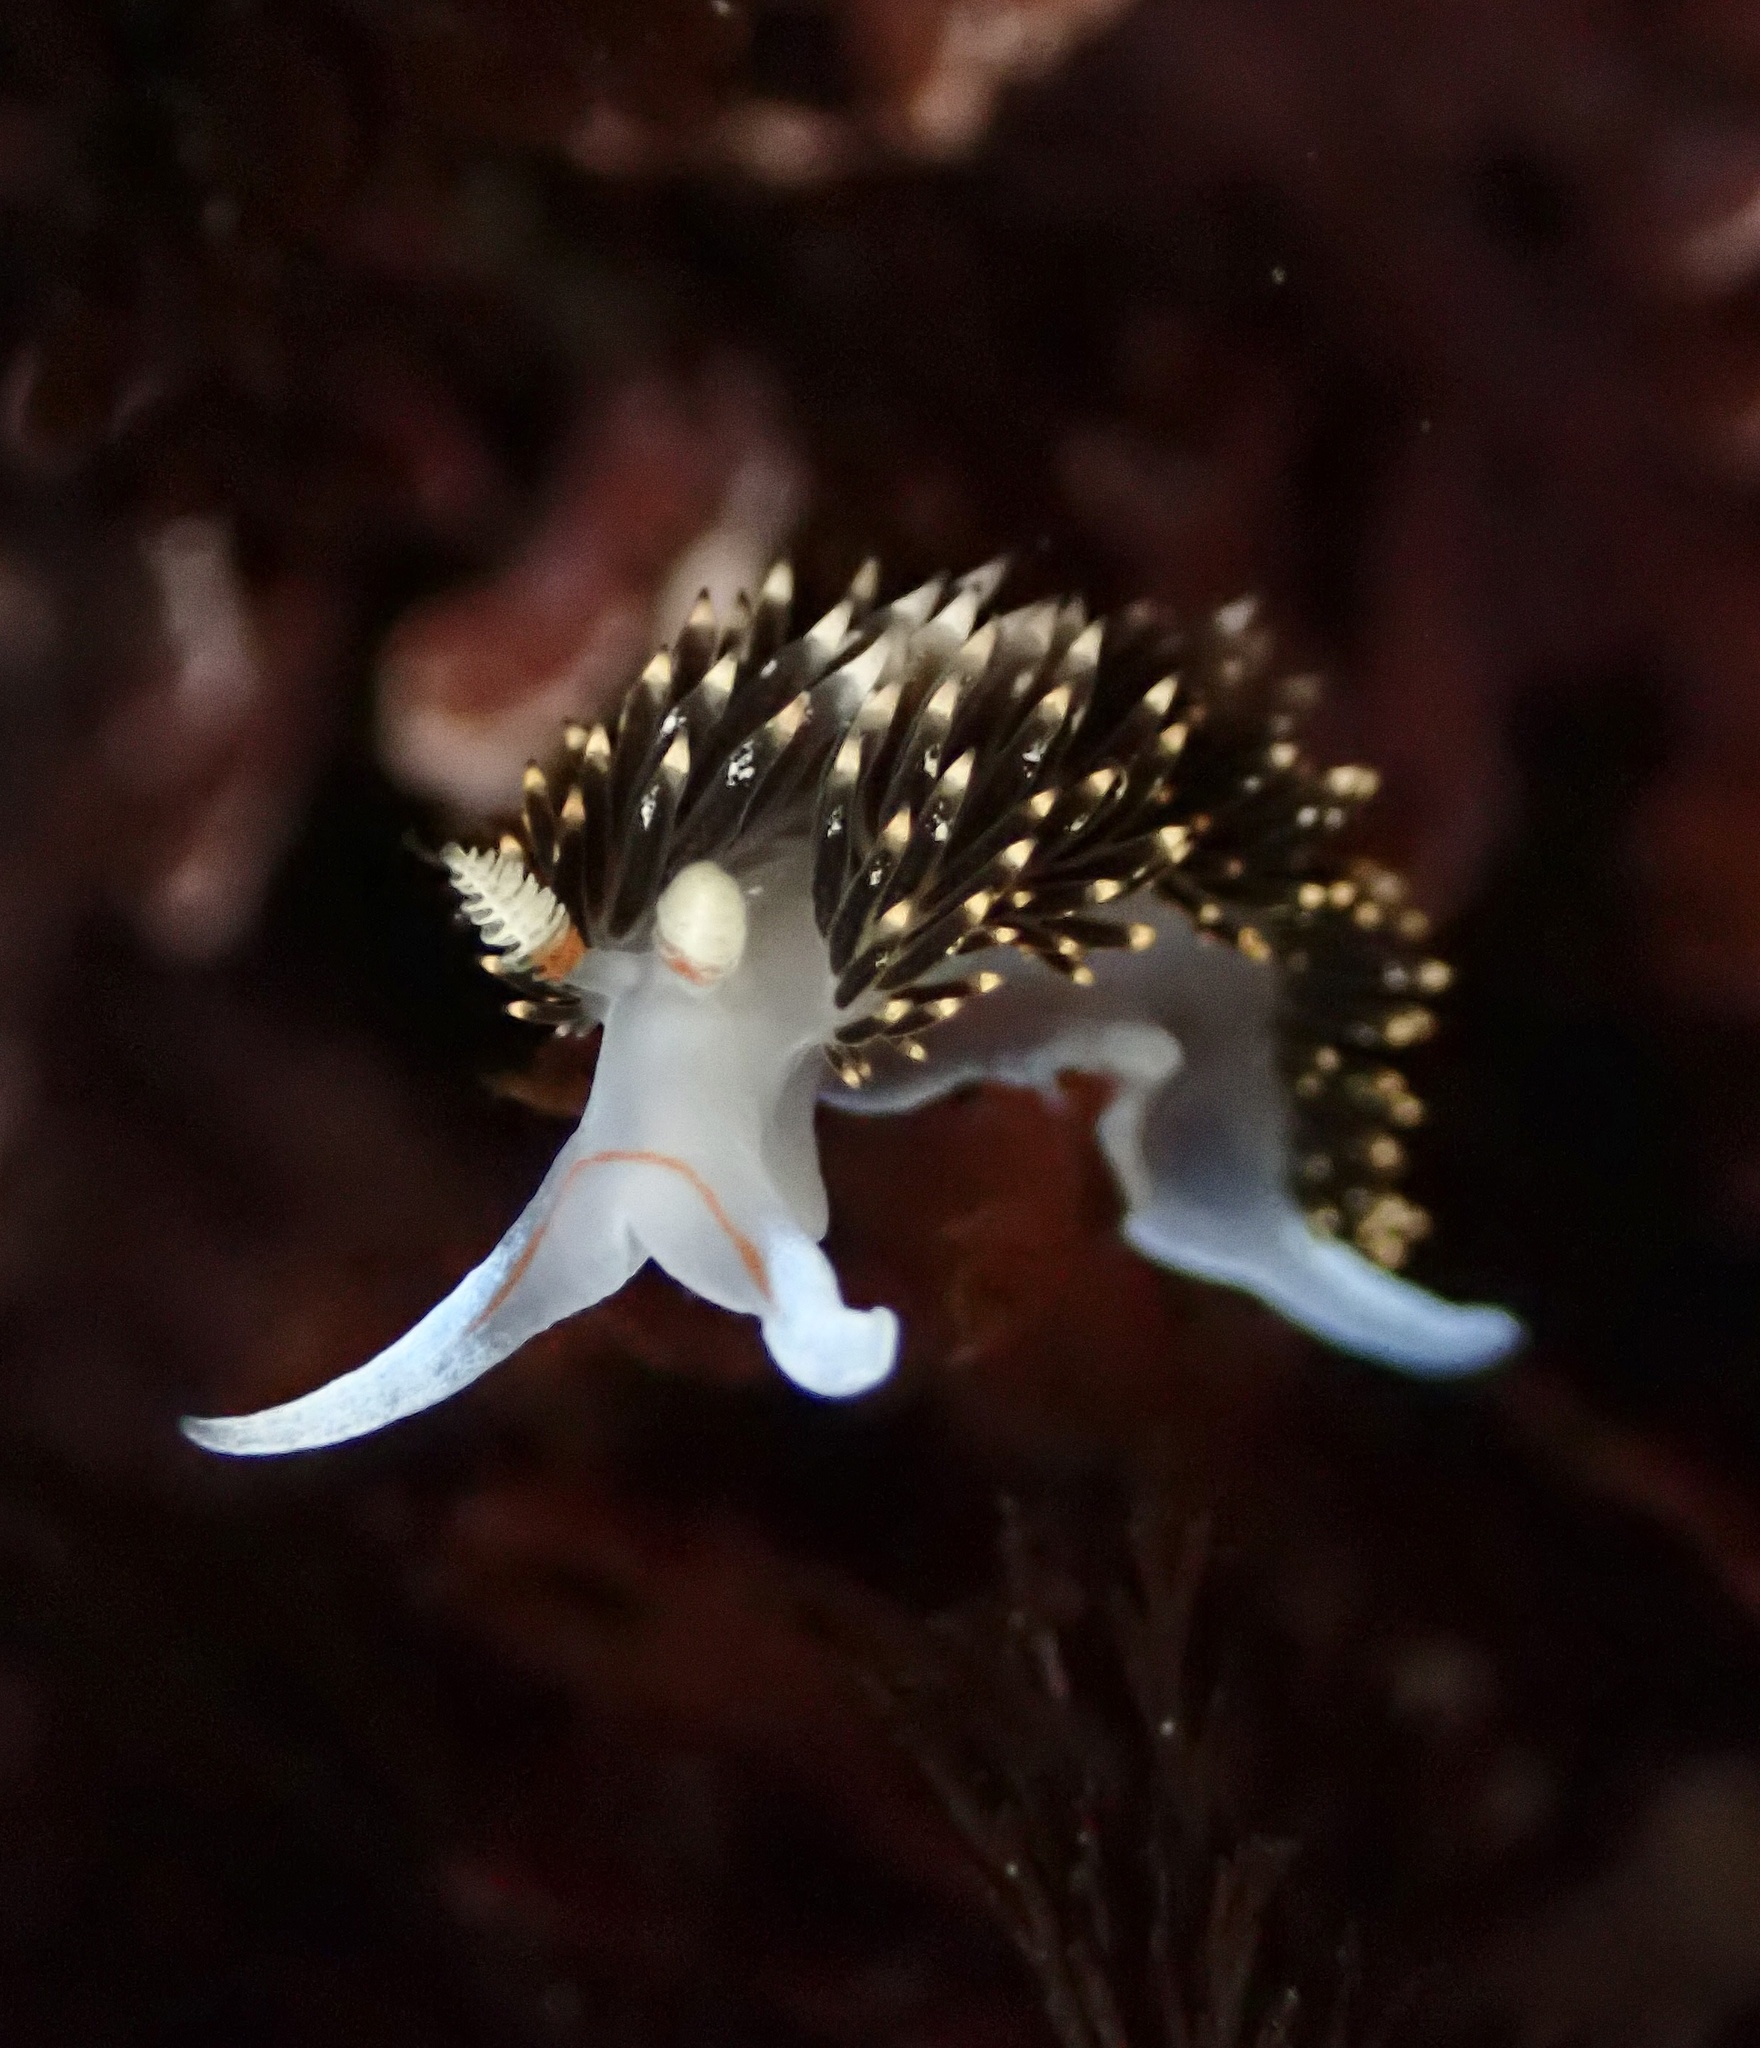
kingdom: Animalia
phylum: Mollusca
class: Gastropoda
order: Nudibranchia
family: Facelinidae
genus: Phidiana
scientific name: Phidiana hiltoni
